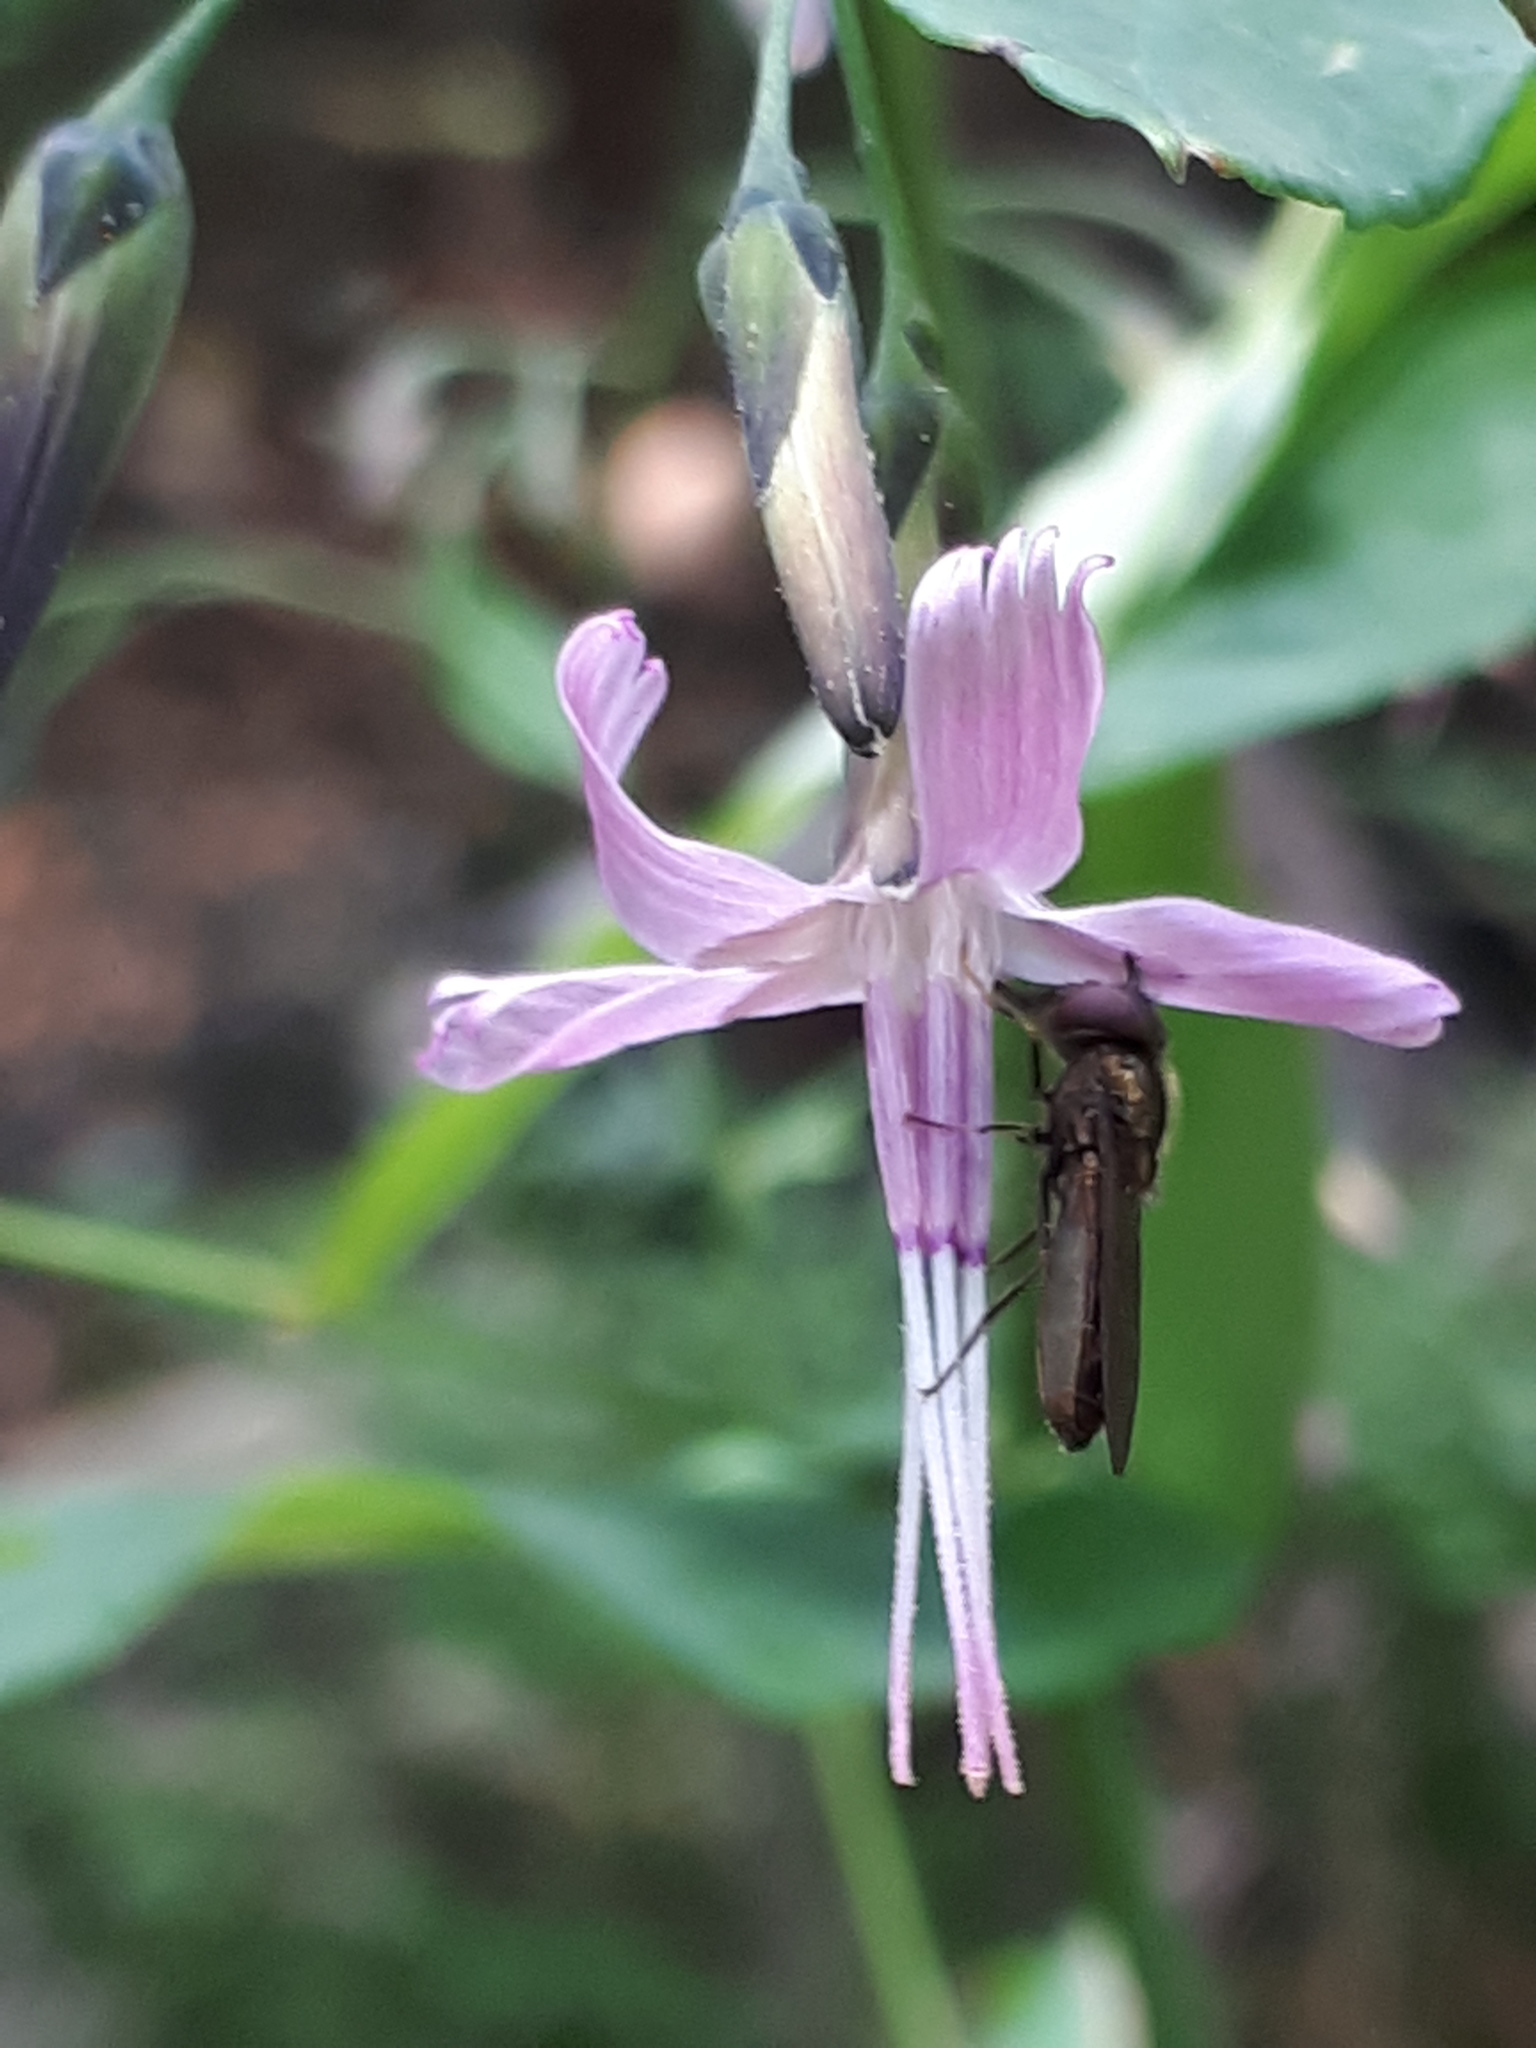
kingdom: Plantae
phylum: Tracheophyta
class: Magnoliopsida
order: Asterales
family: Asteraceae
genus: Prenanthes
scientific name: Prenanthes purpurea
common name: Purple lettuce
